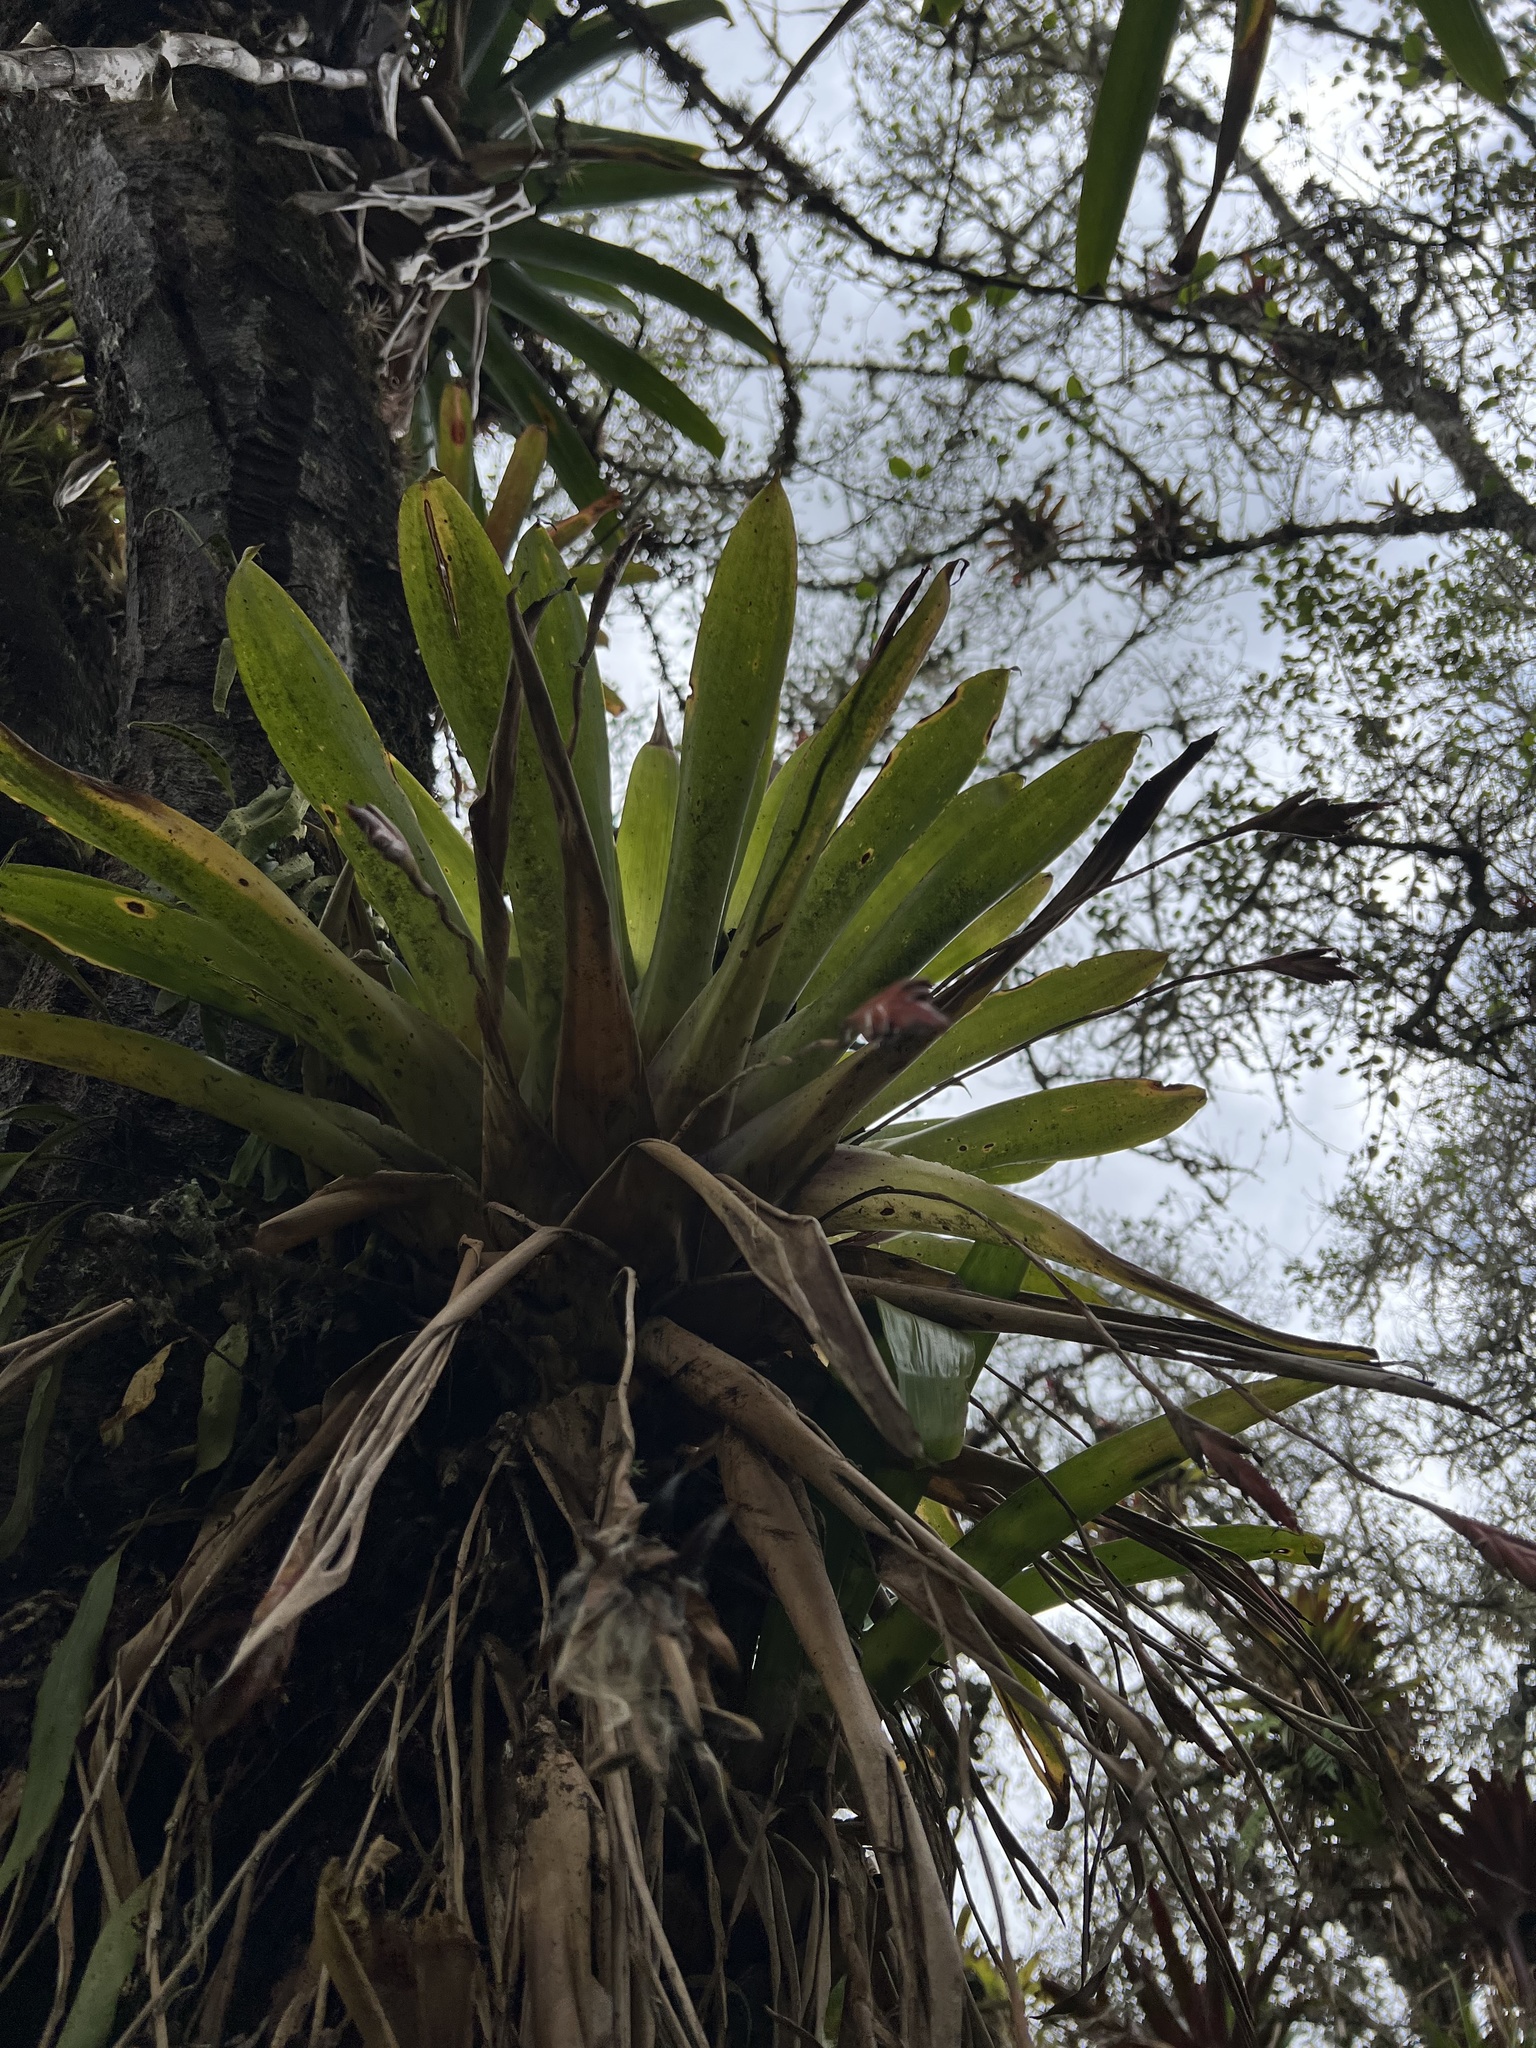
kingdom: Plantae
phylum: Tracheophyta
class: Liliopsida
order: Poales
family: Bromeliaceae
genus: Tillandsia
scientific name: Tillandsia complanata
